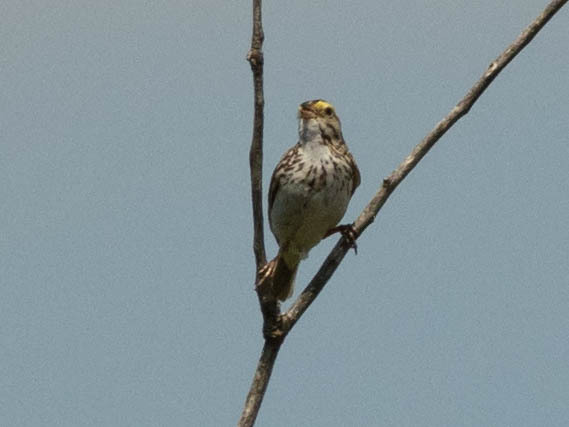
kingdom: Animalia
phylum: Chordata
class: Aves
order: Passeriformes
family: Passerellidae
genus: Passerculus
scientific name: Passerculus sandwichensis
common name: Savannah sparrow
